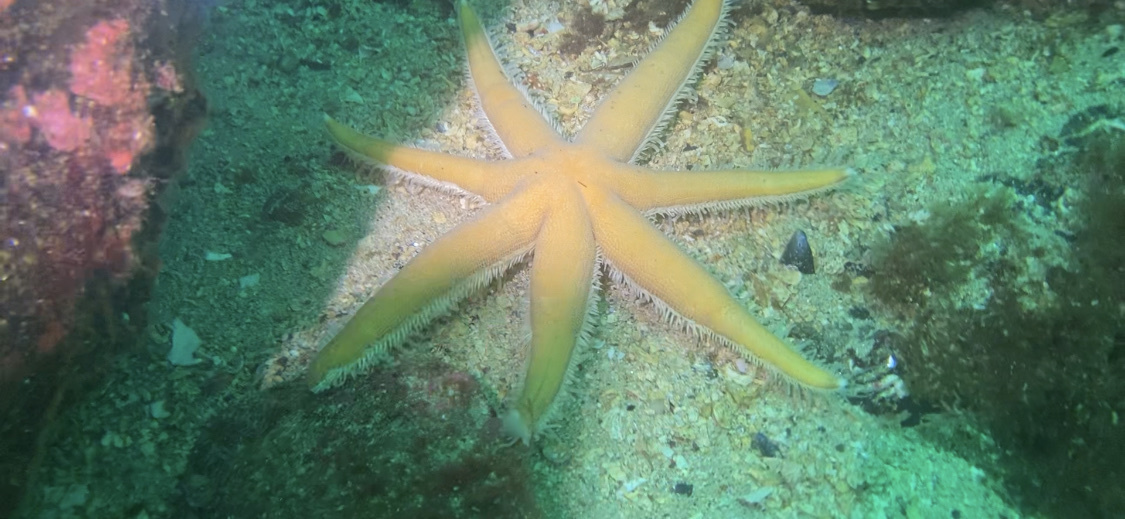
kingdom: Animalia
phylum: Echinodermata
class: Asteroidea
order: Paxillosida
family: Luidiidae
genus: Luidia
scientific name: Luidia ciliaris
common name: Seven-armed starfish
